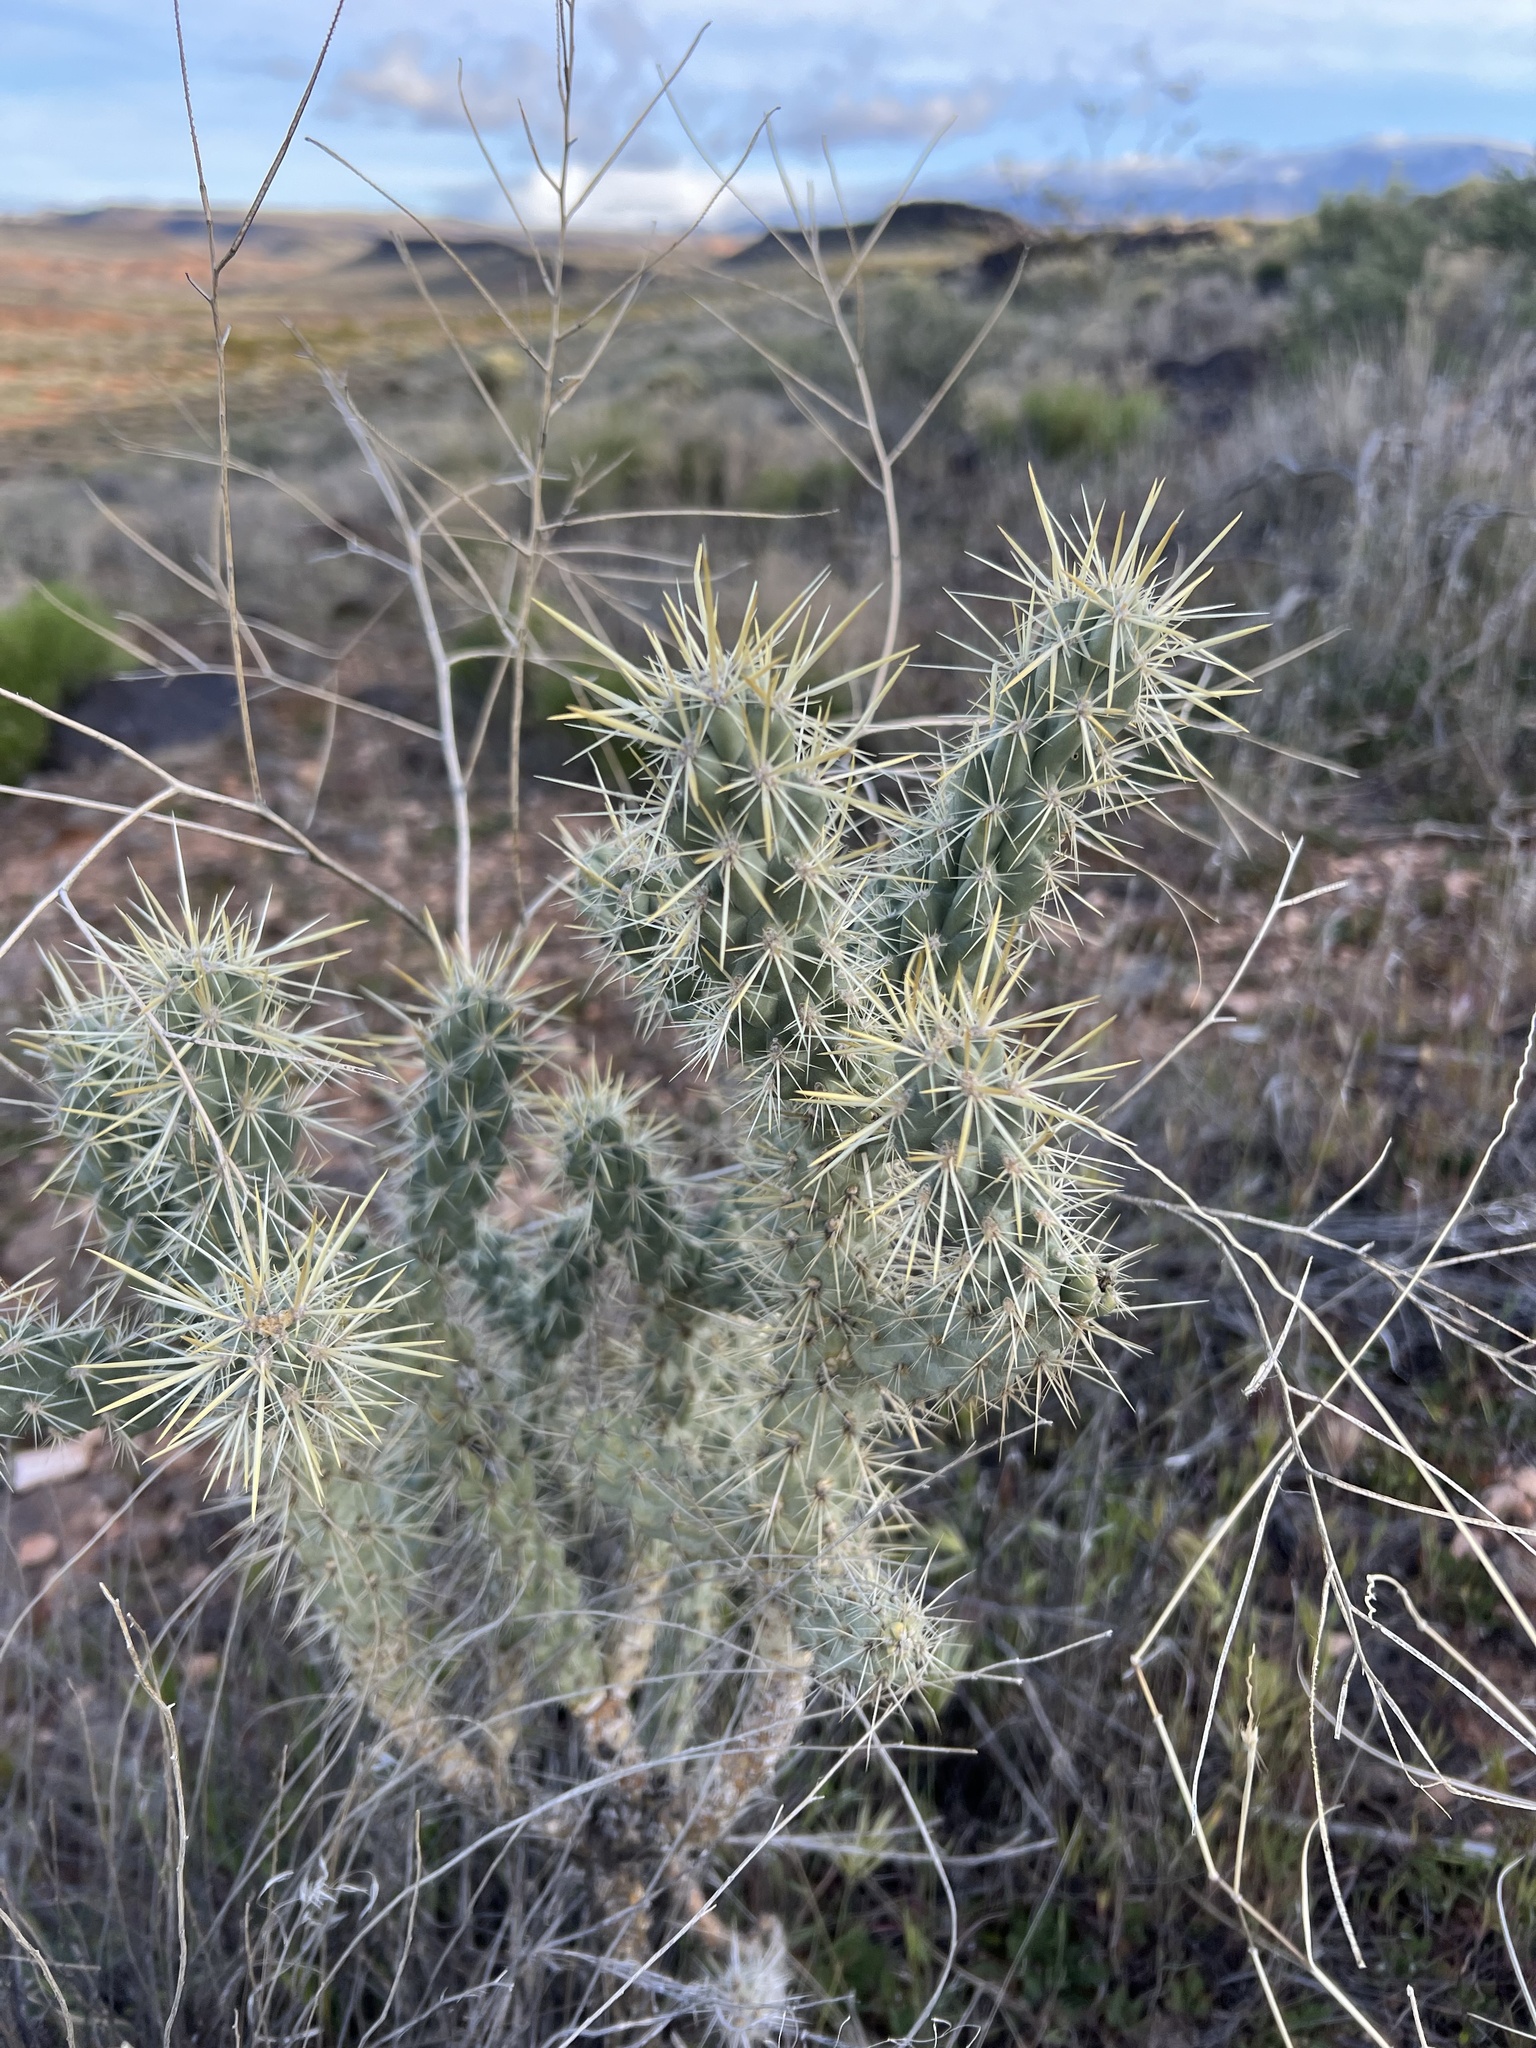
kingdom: Plantae
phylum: Tracheophyta
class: Magnoliopsida
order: Caryophyllales
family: Cactaceae
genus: Cylindropuntia
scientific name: Cylindropuntia echinocarpa
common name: Ground cholla
